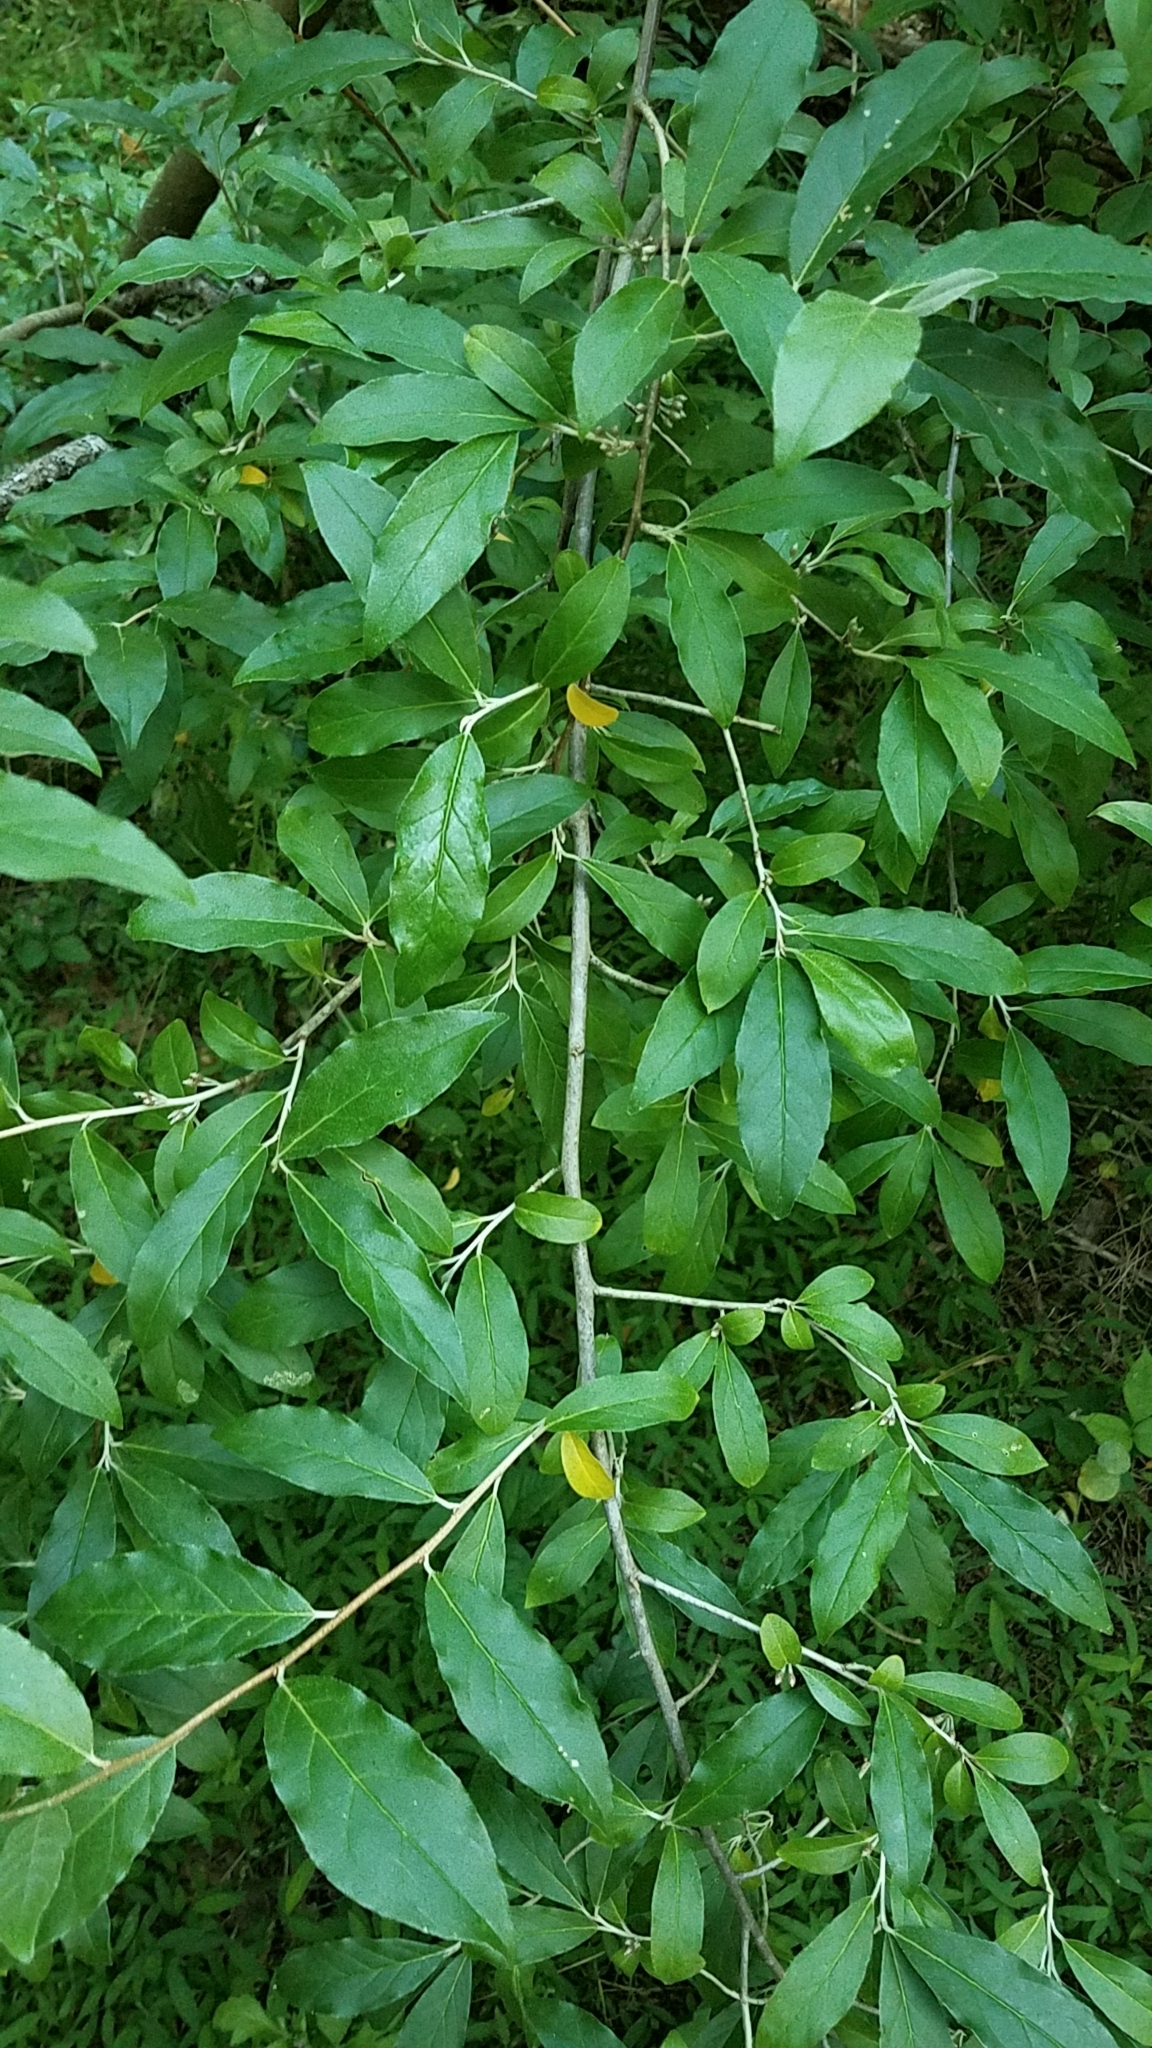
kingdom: Plantae
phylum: Tracheophyta
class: Magnoliopsida
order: Rosales
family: Elaeagnaceae
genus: Elaeagnus
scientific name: Elaeagnus umbellata
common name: Autumn olive
